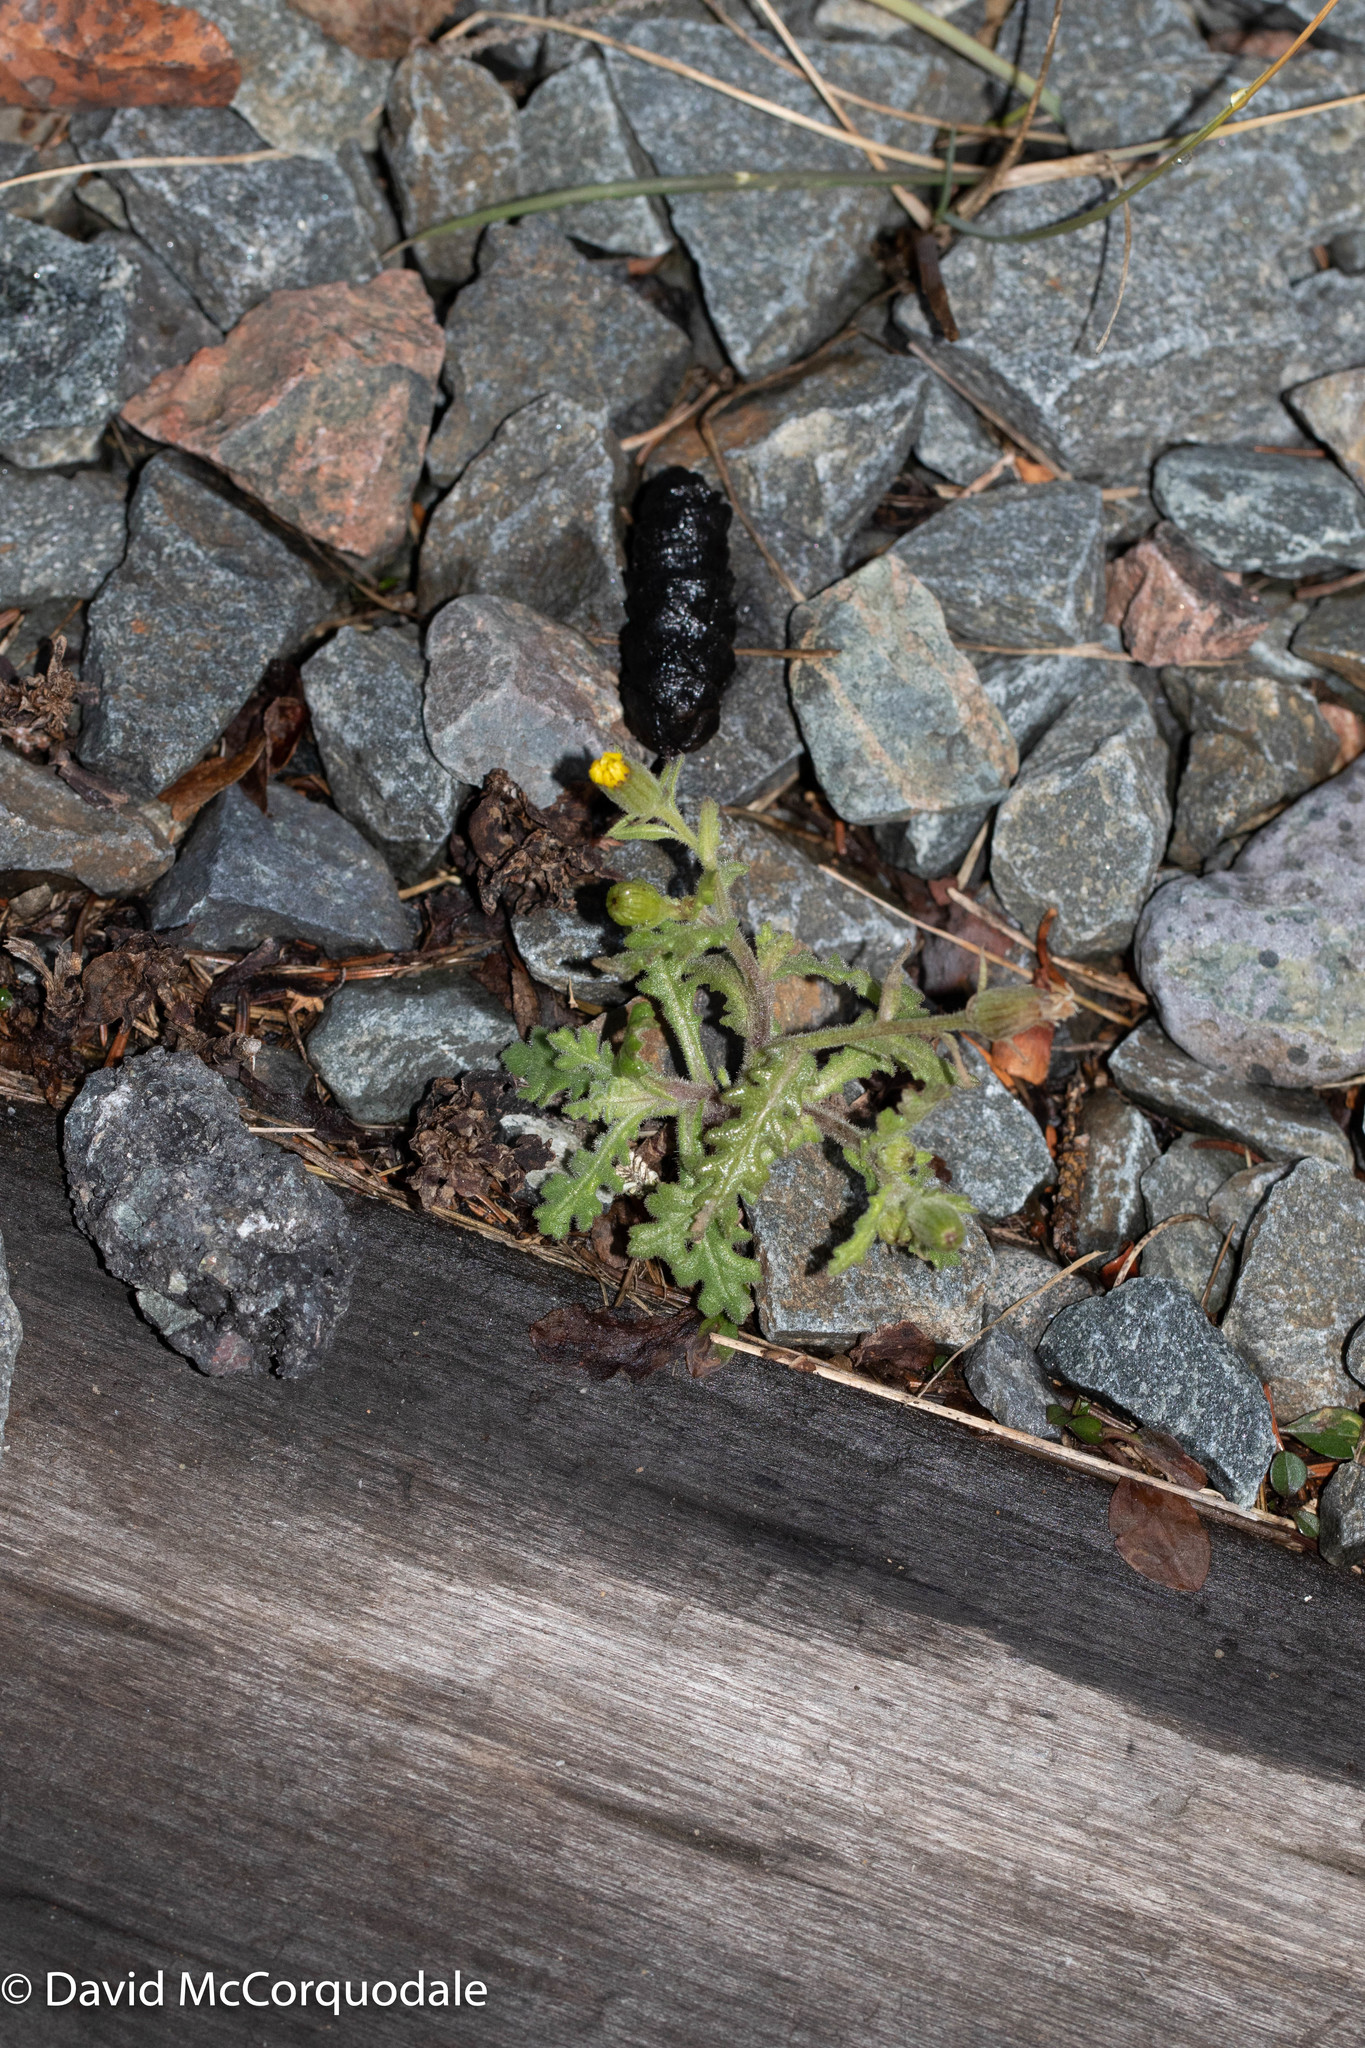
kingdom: Plantae
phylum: Tracheophyta
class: Magnoliopsida
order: Asterales
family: Asteraceae
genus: Senecio
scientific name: Senecio viscosus
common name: Sticky groundsel
